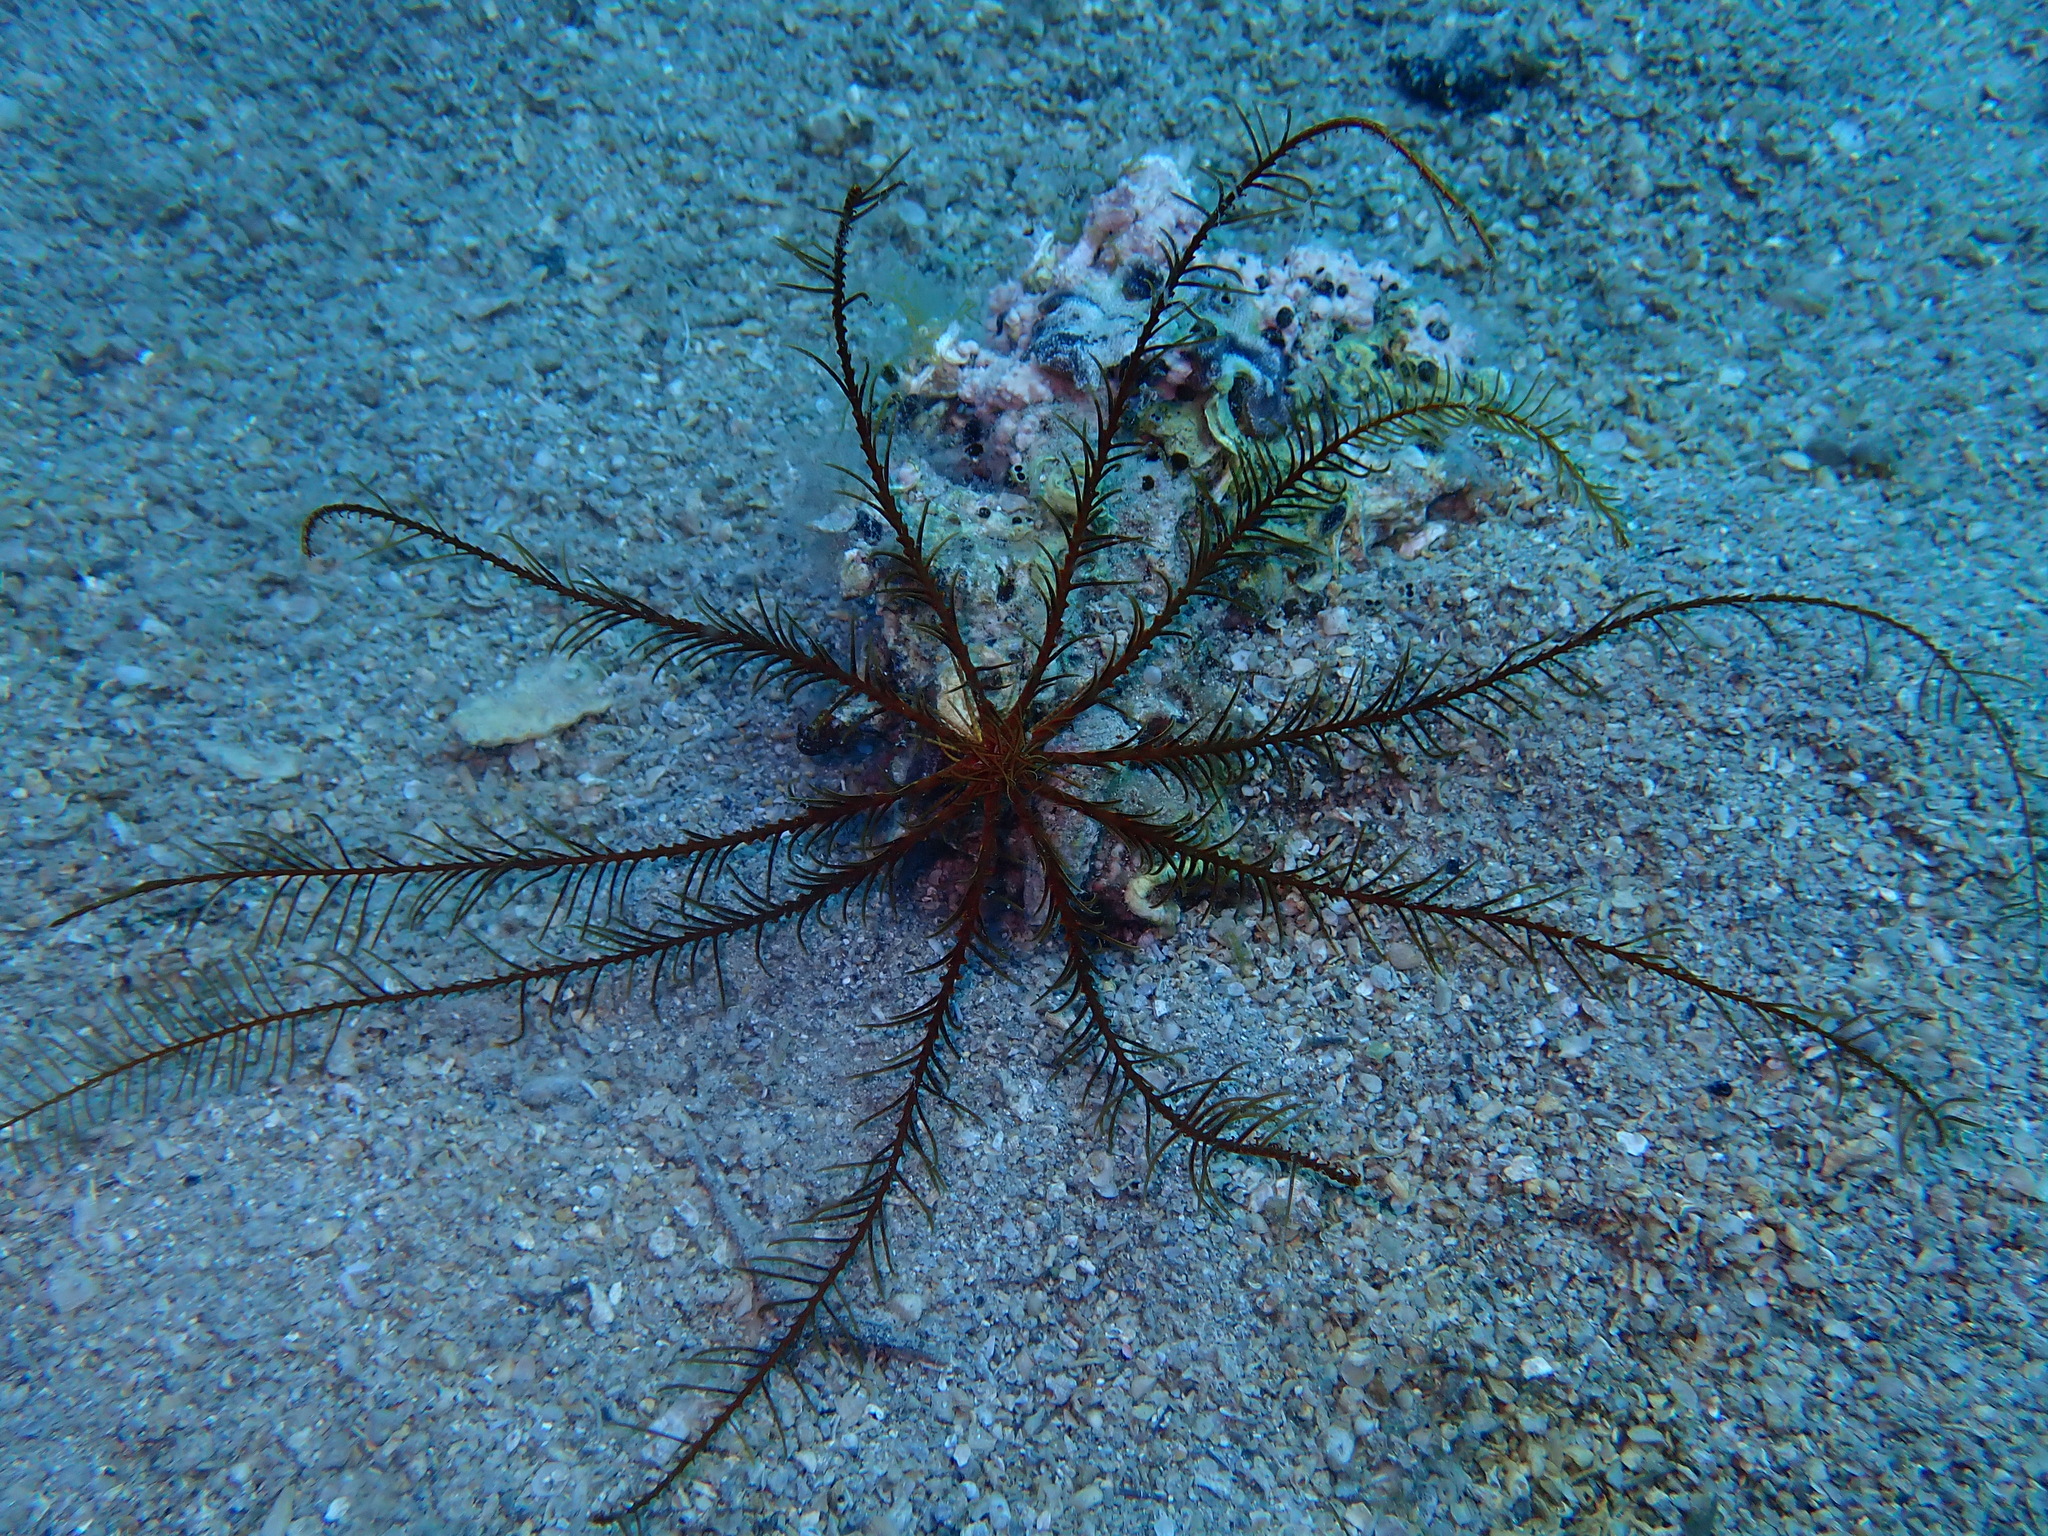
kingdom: Animalia
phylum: Echinodermata
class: Crinoidea
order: Comatulida
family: Antedonidae
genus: Antedon
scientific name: Antedon mediterranea
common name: Feather star
